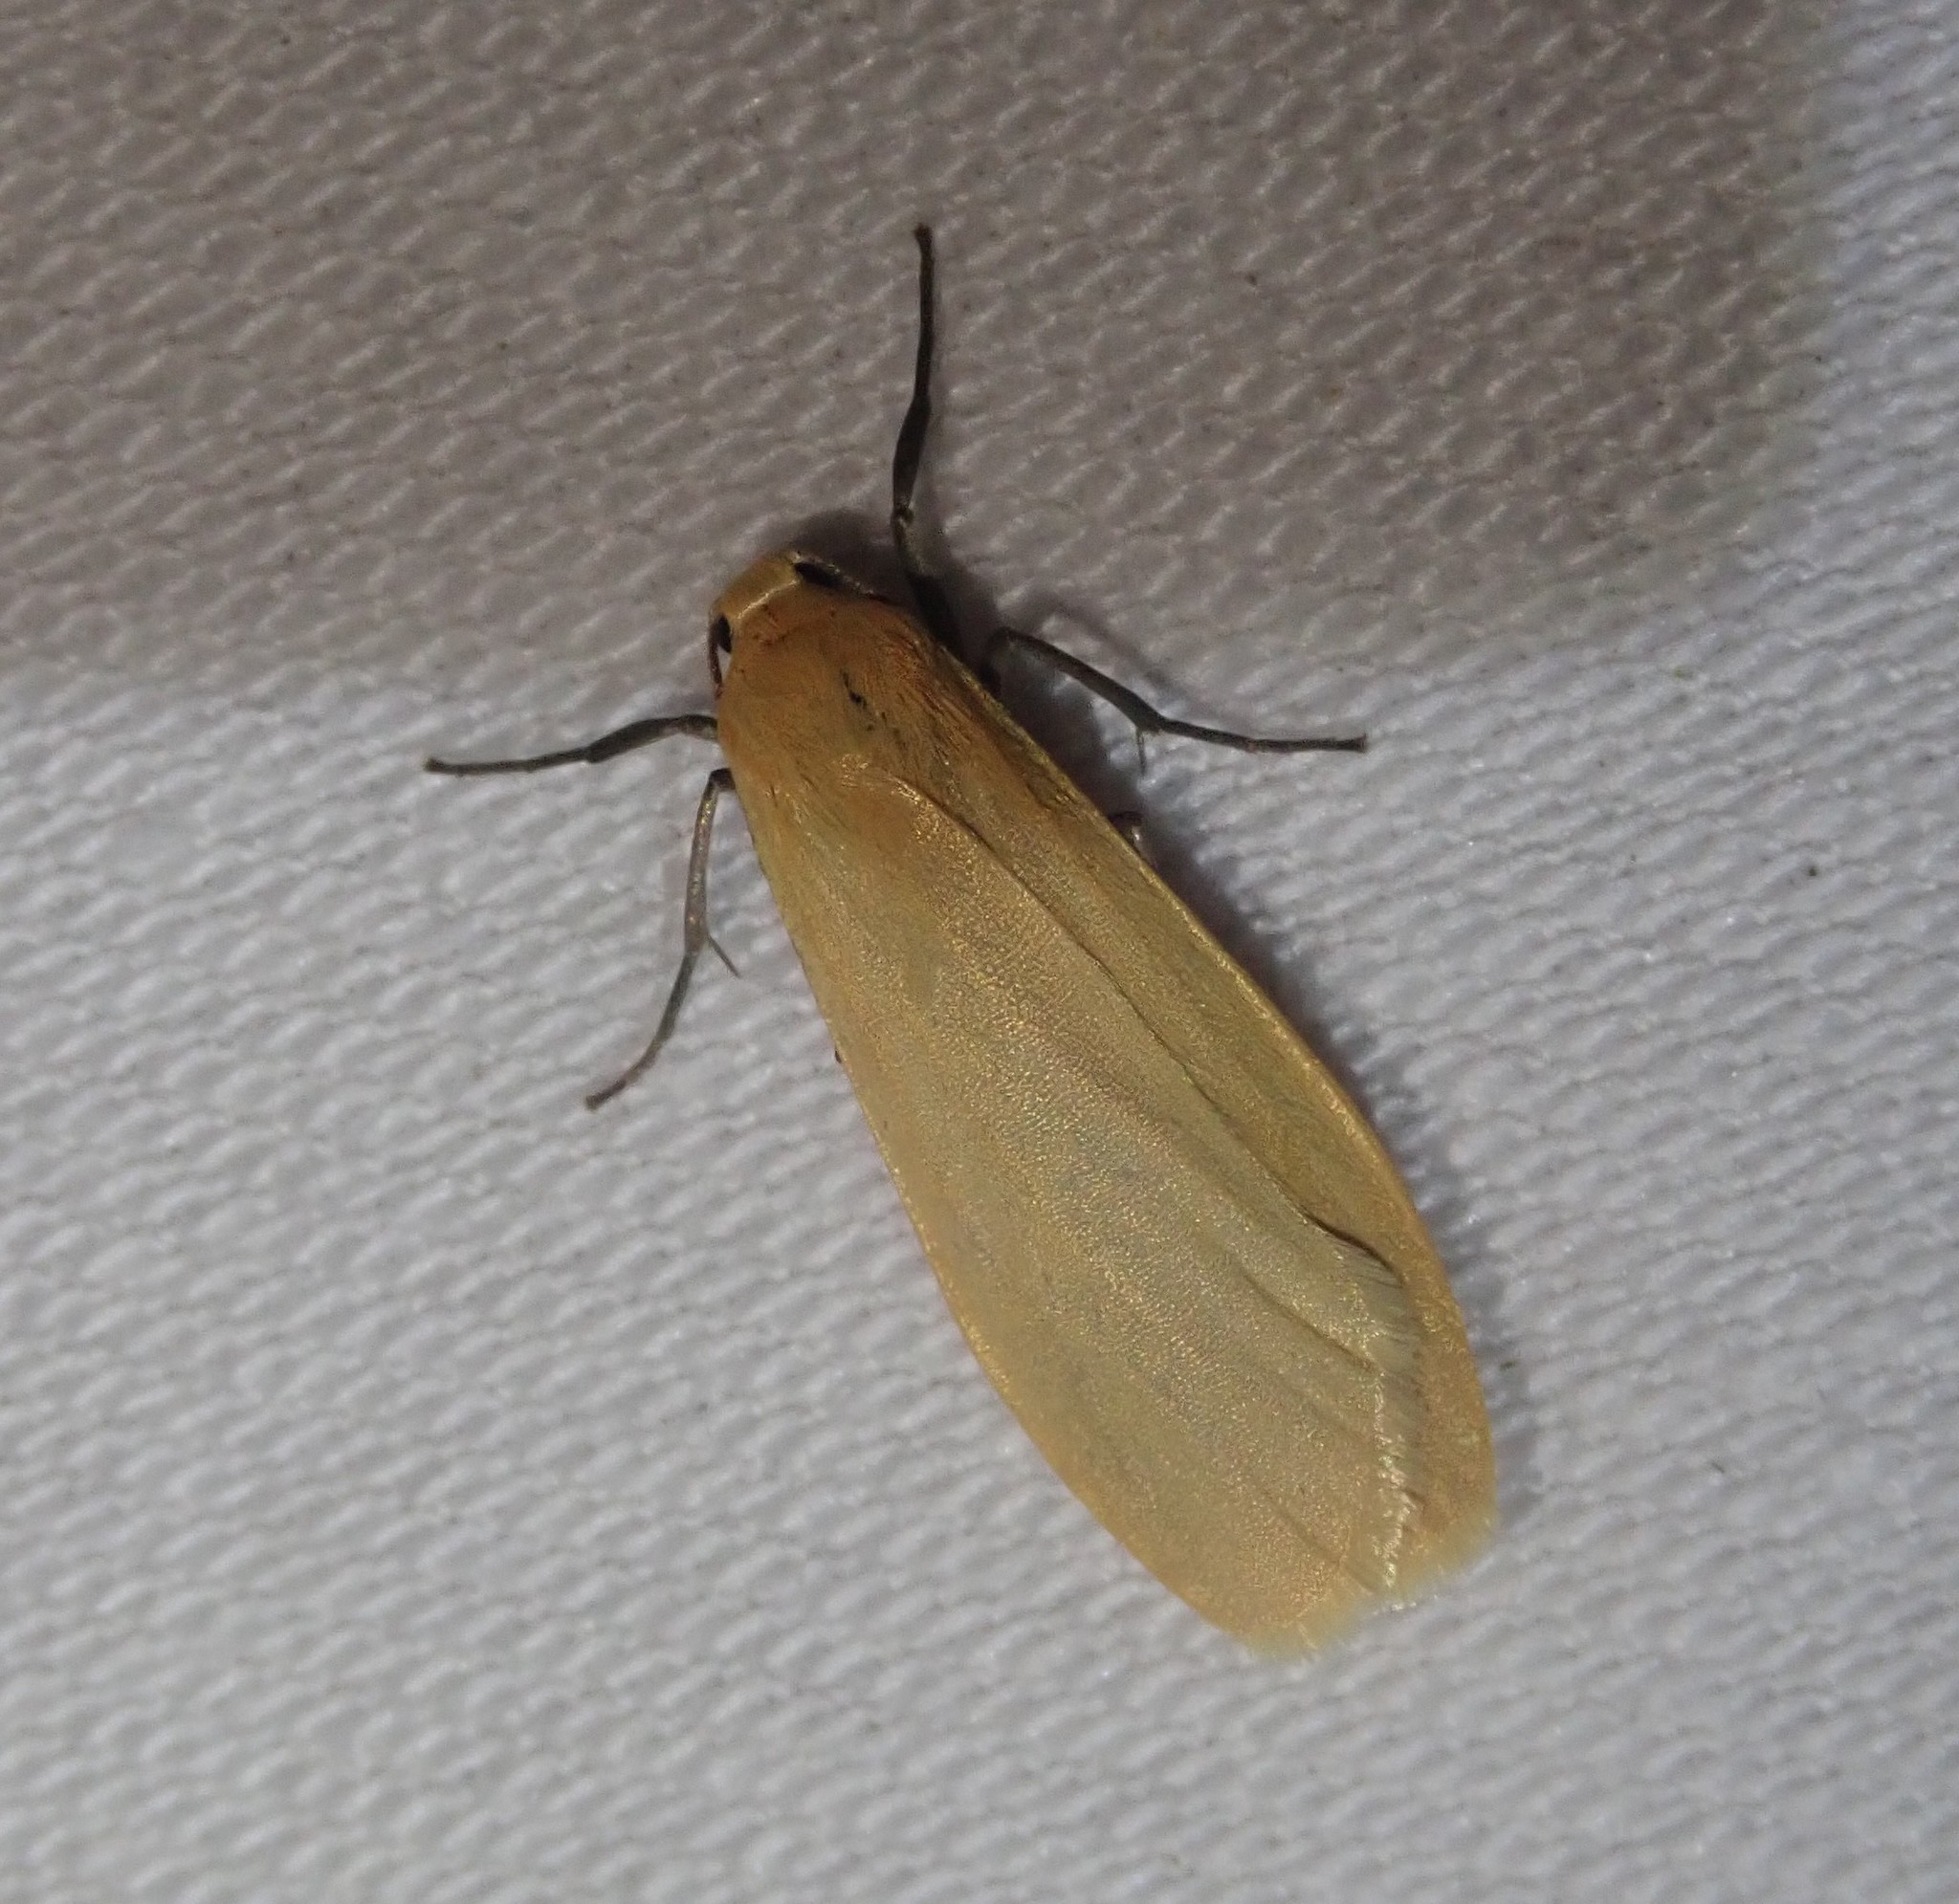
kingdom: Animalia
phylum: Arthropoda
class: Insecta
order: Lepidoptera
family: Erebidae
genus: Wittia
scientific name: Wittia sororcula
